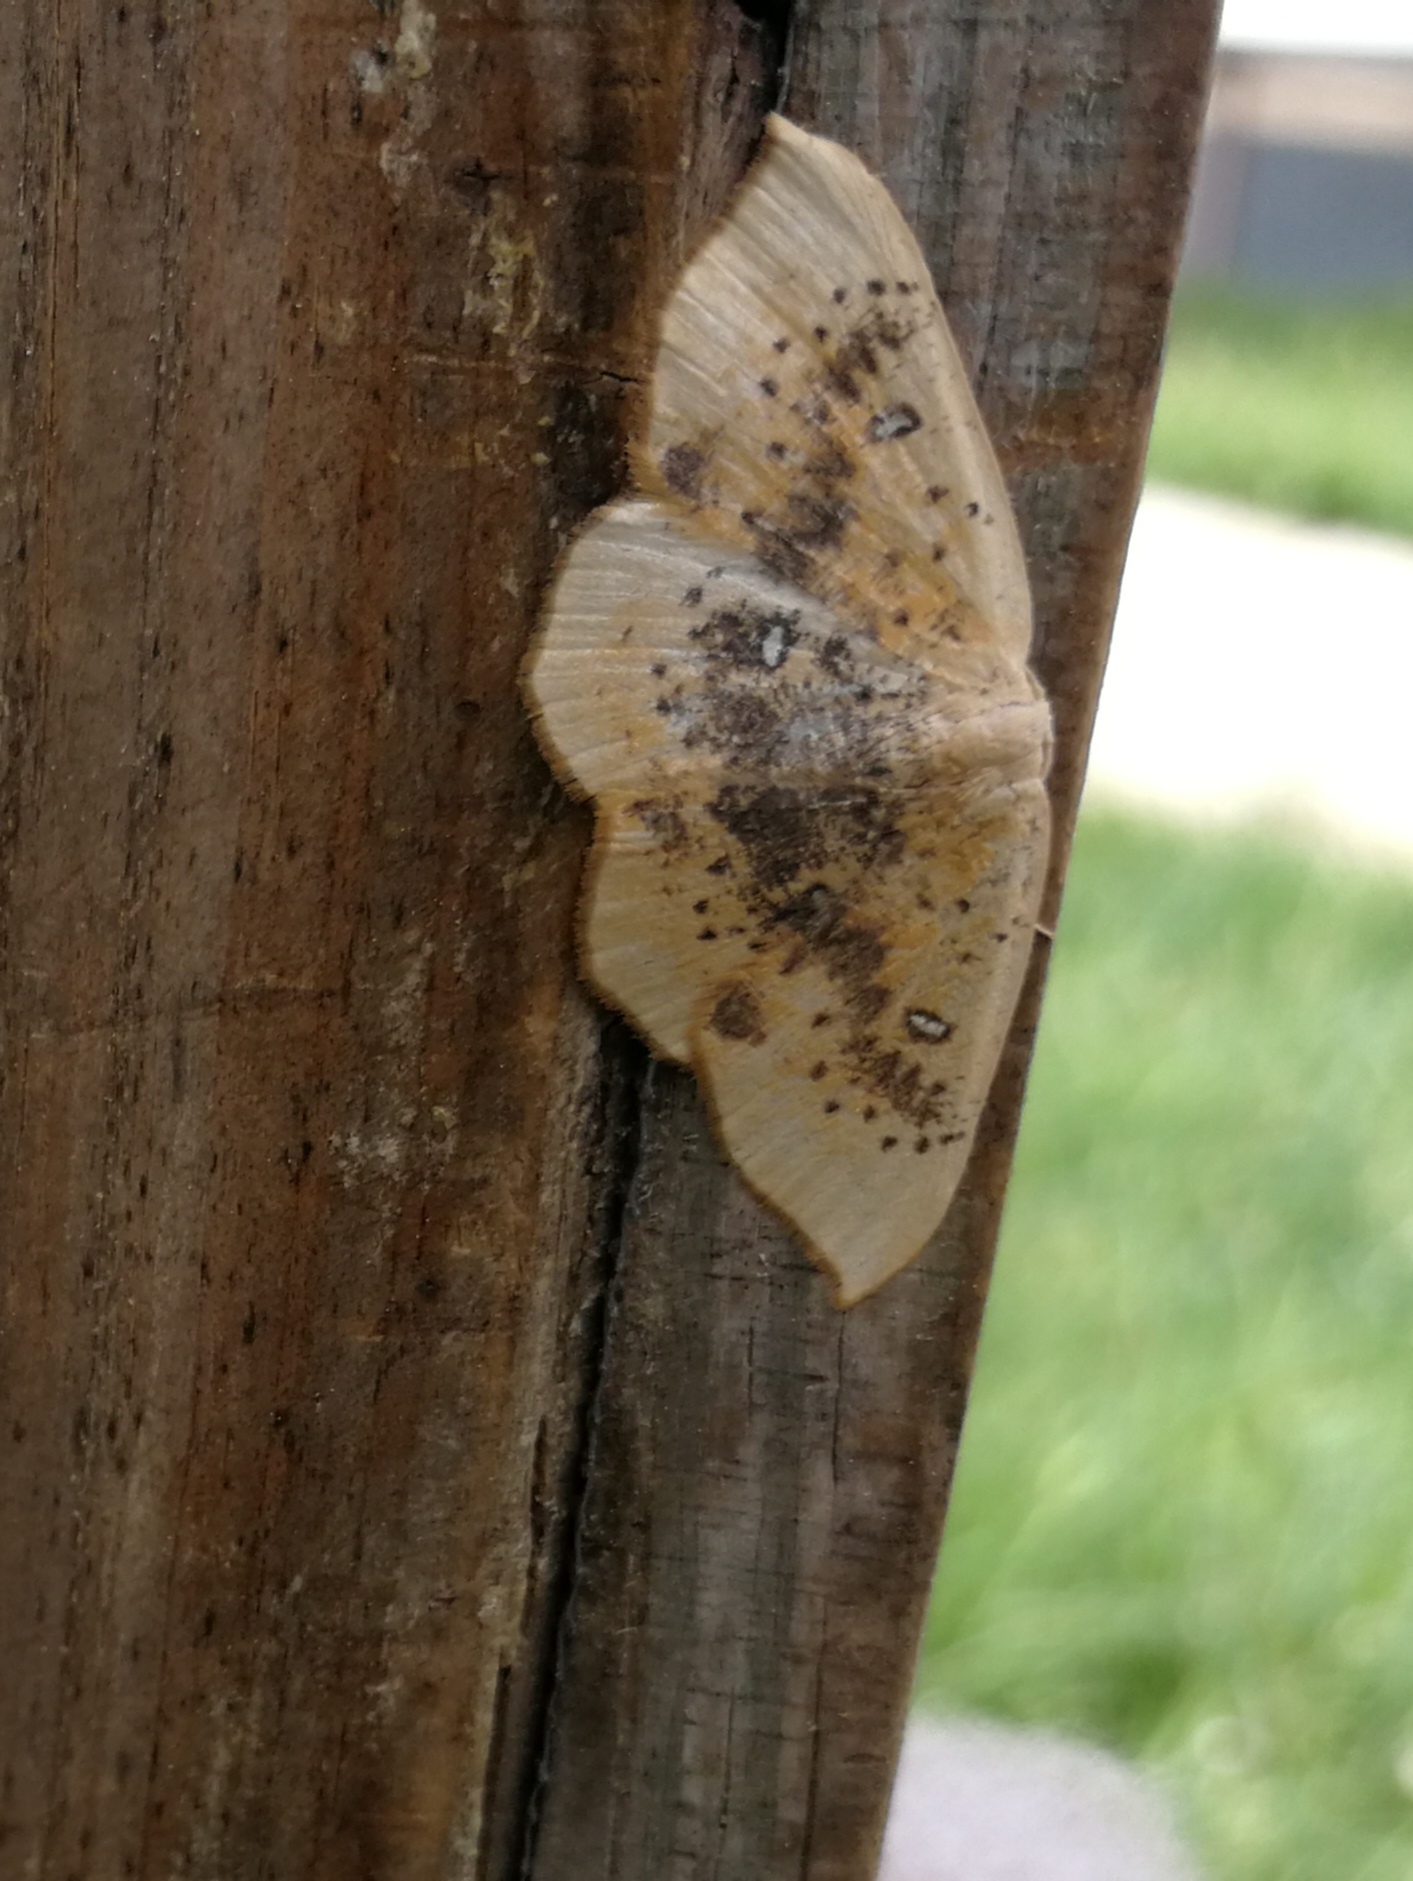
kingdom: Animalia
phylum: Arthropoda
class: Insecta
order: Lepidoptera
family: Geometridae
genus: Cyclophora
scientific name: Cyclophora lennigiaria
